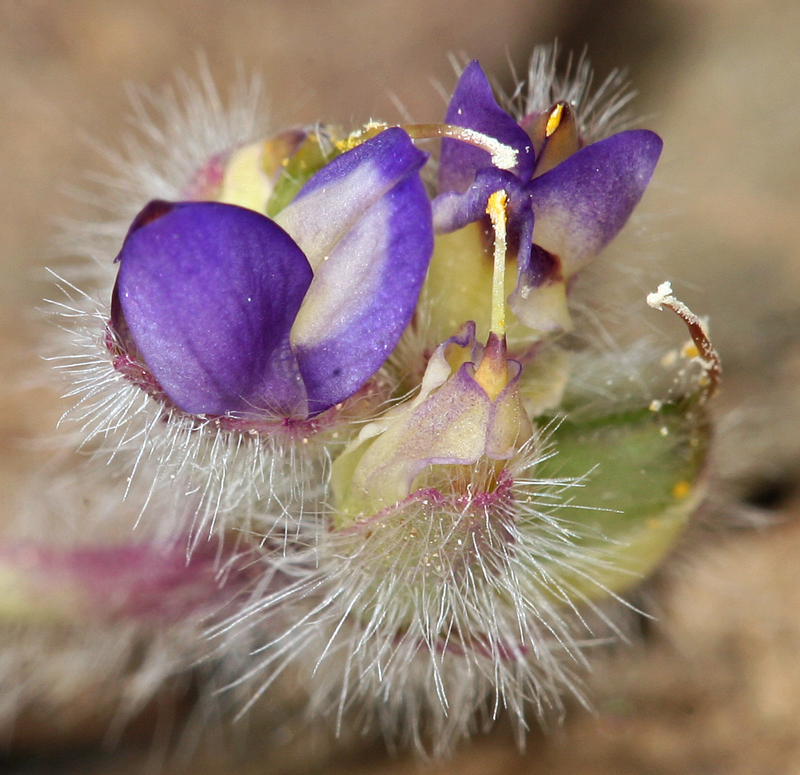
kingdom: Plantae
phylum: Tracheophyta
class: Magnoliopsida
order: Fabales
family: Fabaceae
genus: Lupinus
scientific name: Lupinus brevicaulis
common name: Sand lupine
